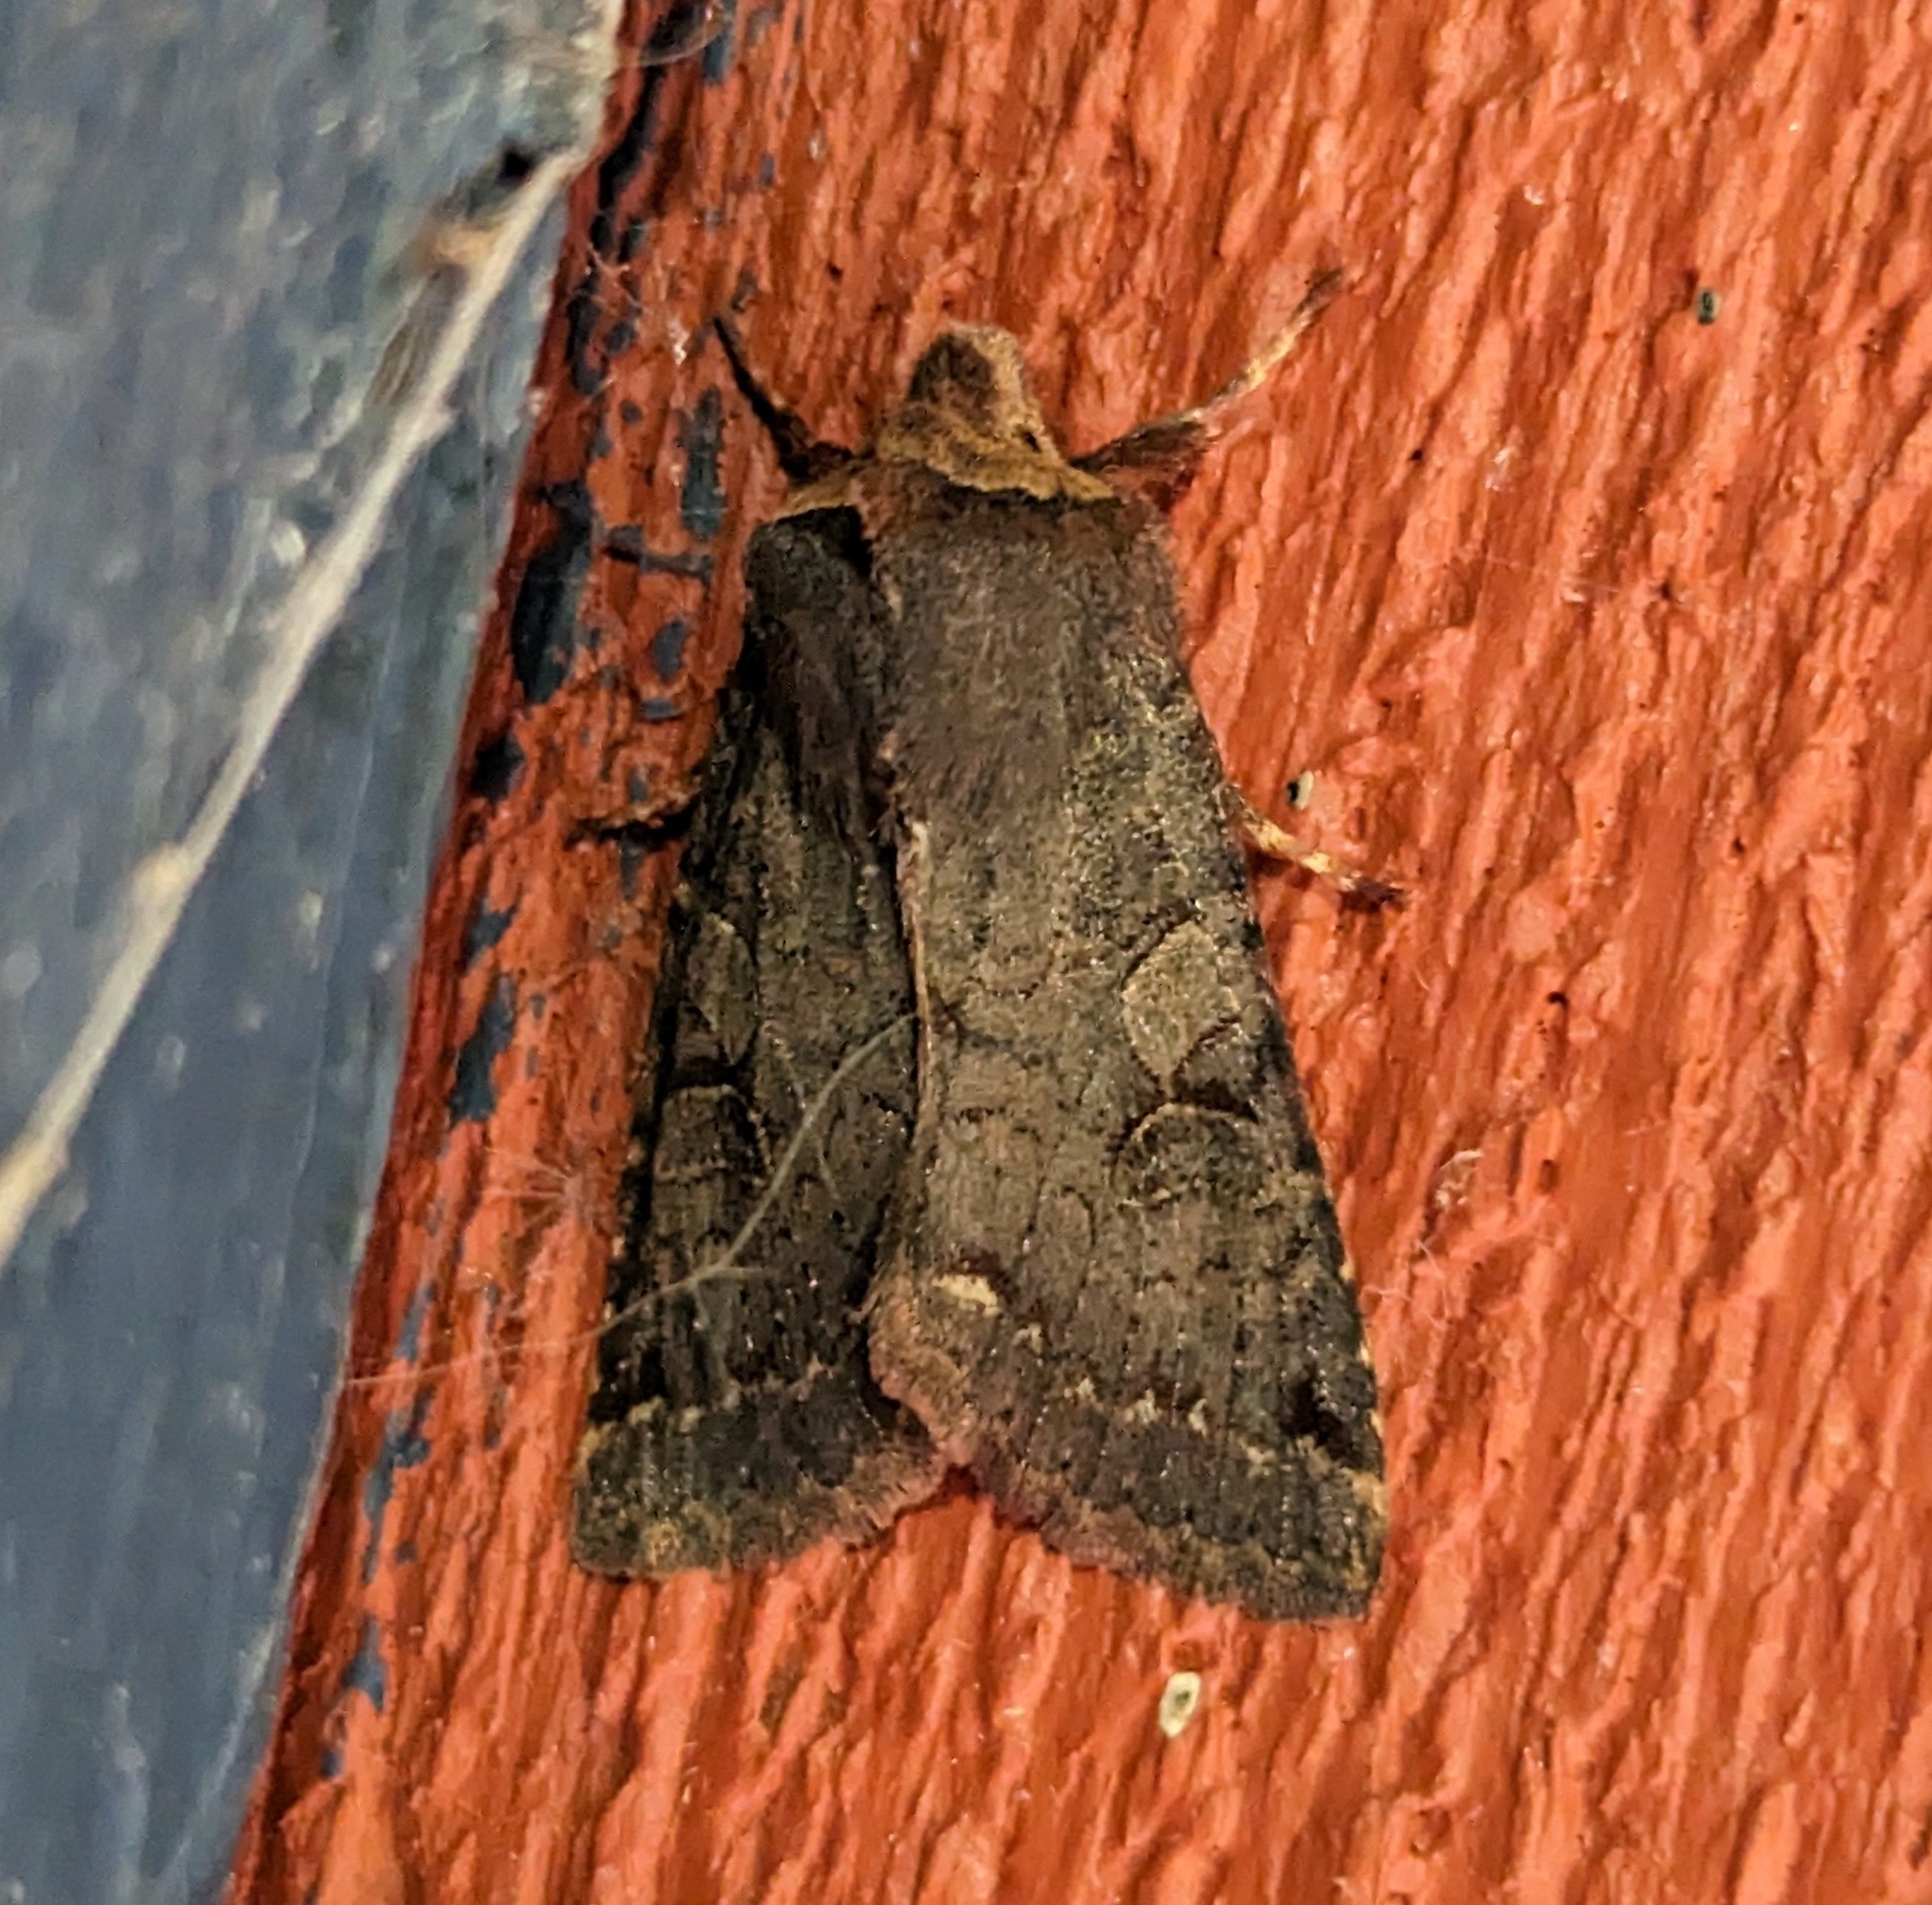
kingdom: Animalia
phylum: Arthropoda
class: Insecta
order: Lepidoptera
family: Noctuidae
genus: Orthosia
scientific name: Orthosia praeses
